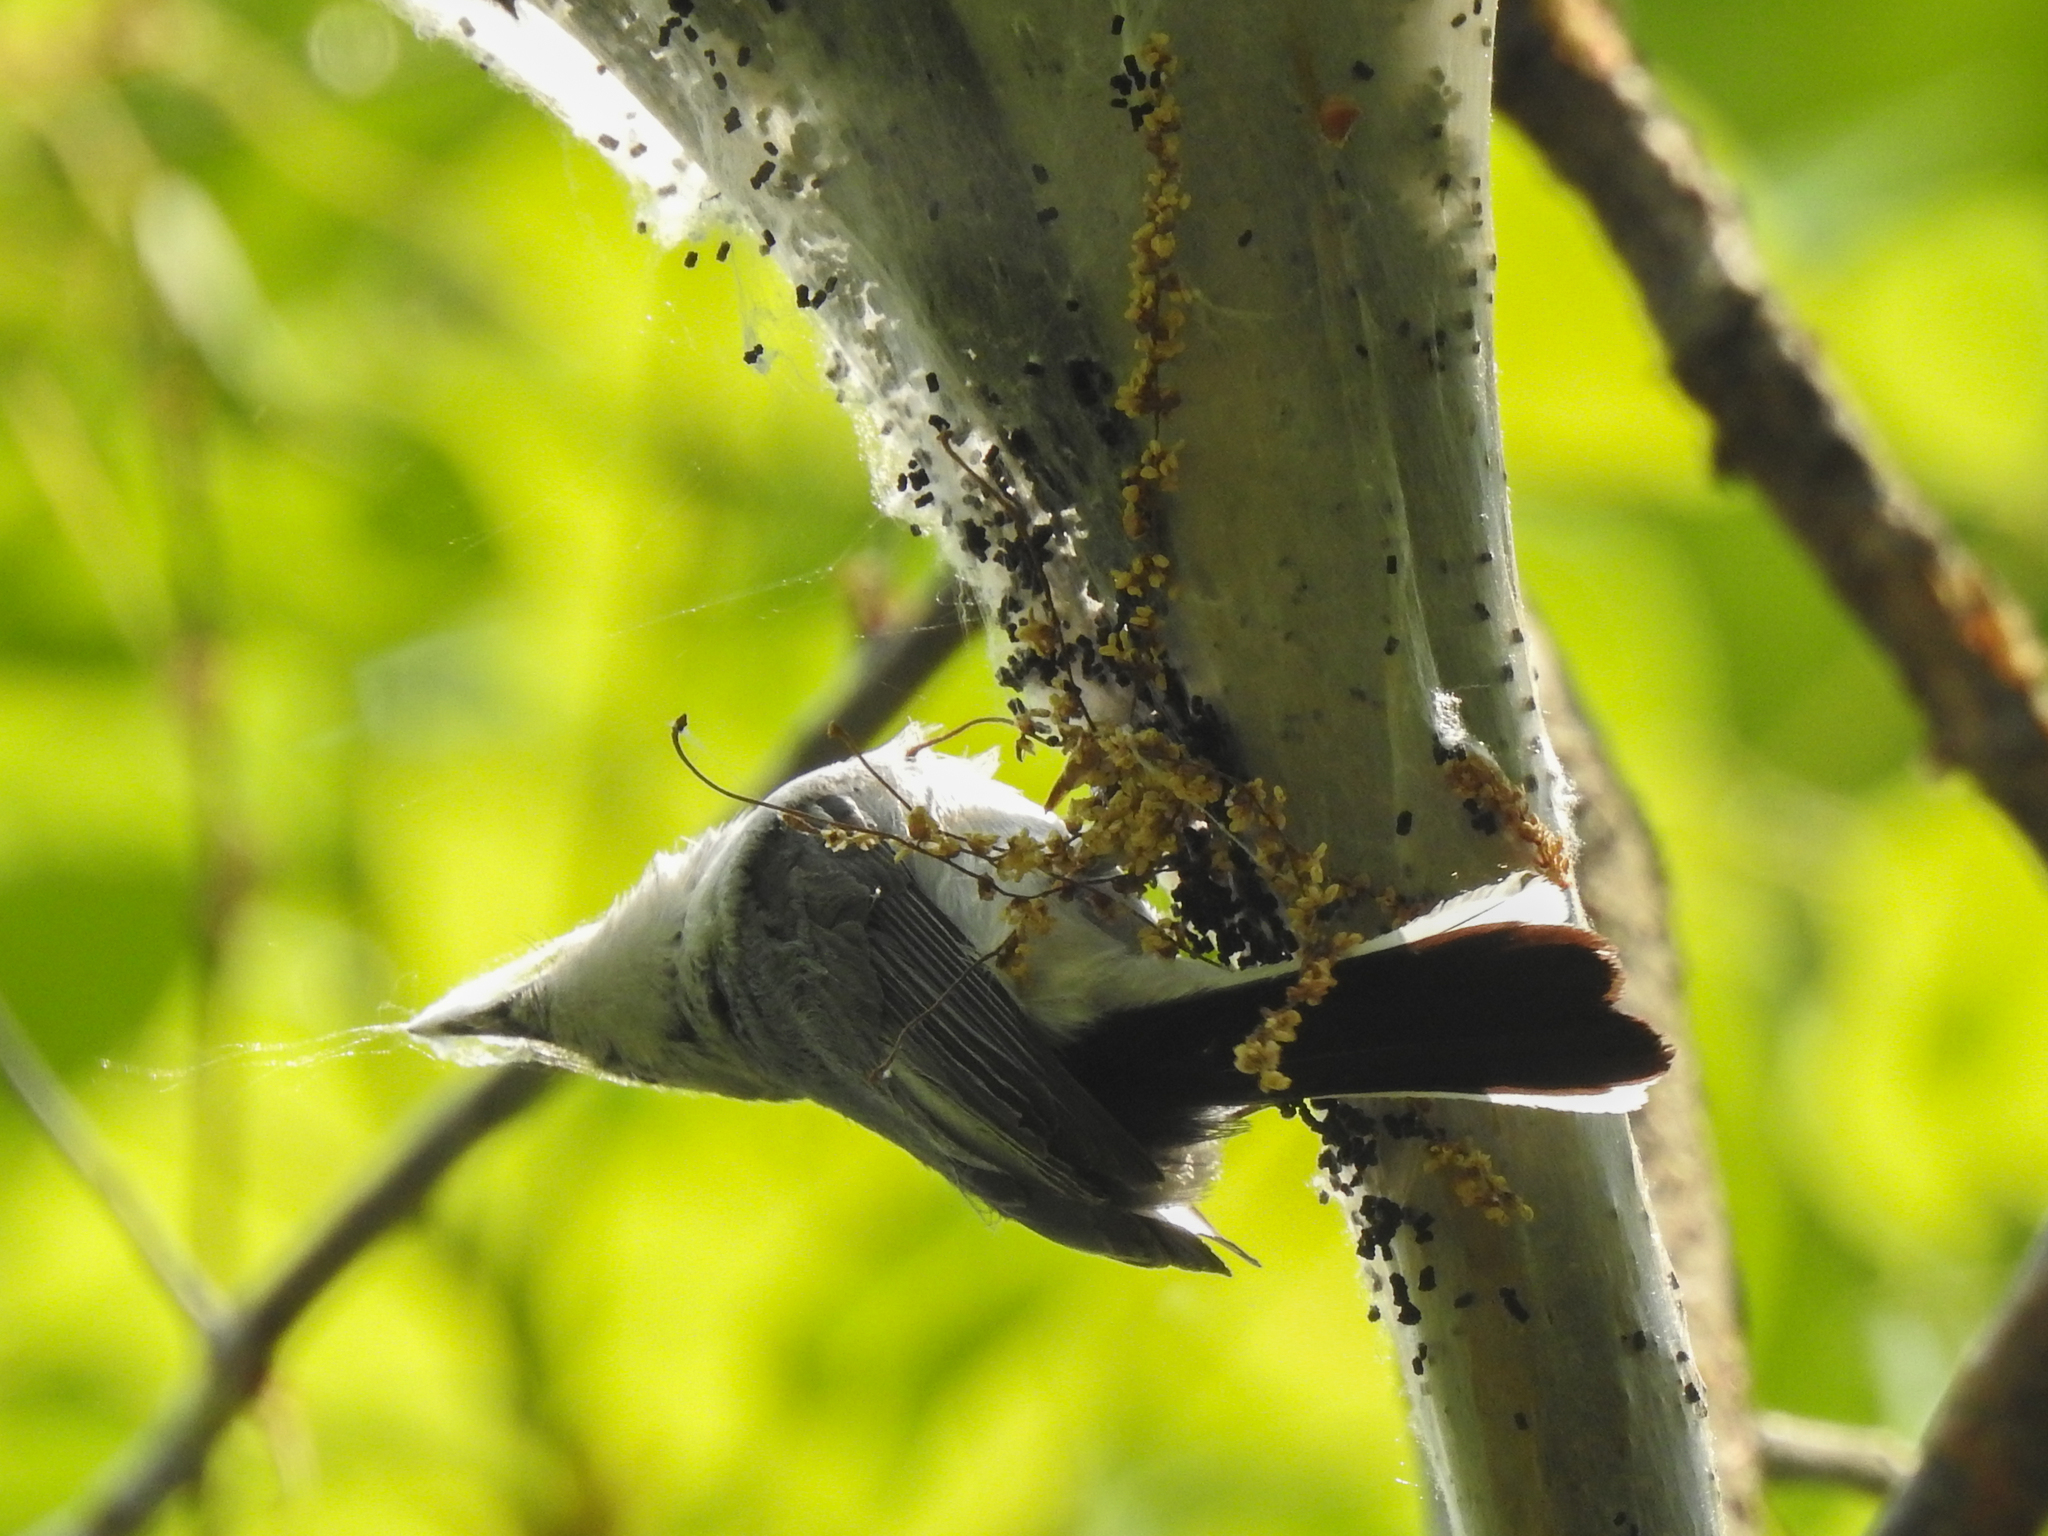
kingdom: Animalia
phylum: Chordata
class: Aves
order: Passeriformes
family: Polioptilidae
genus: Polioptila
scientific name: Polioptila caerulea
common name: Blue-gray gnatcatcher
